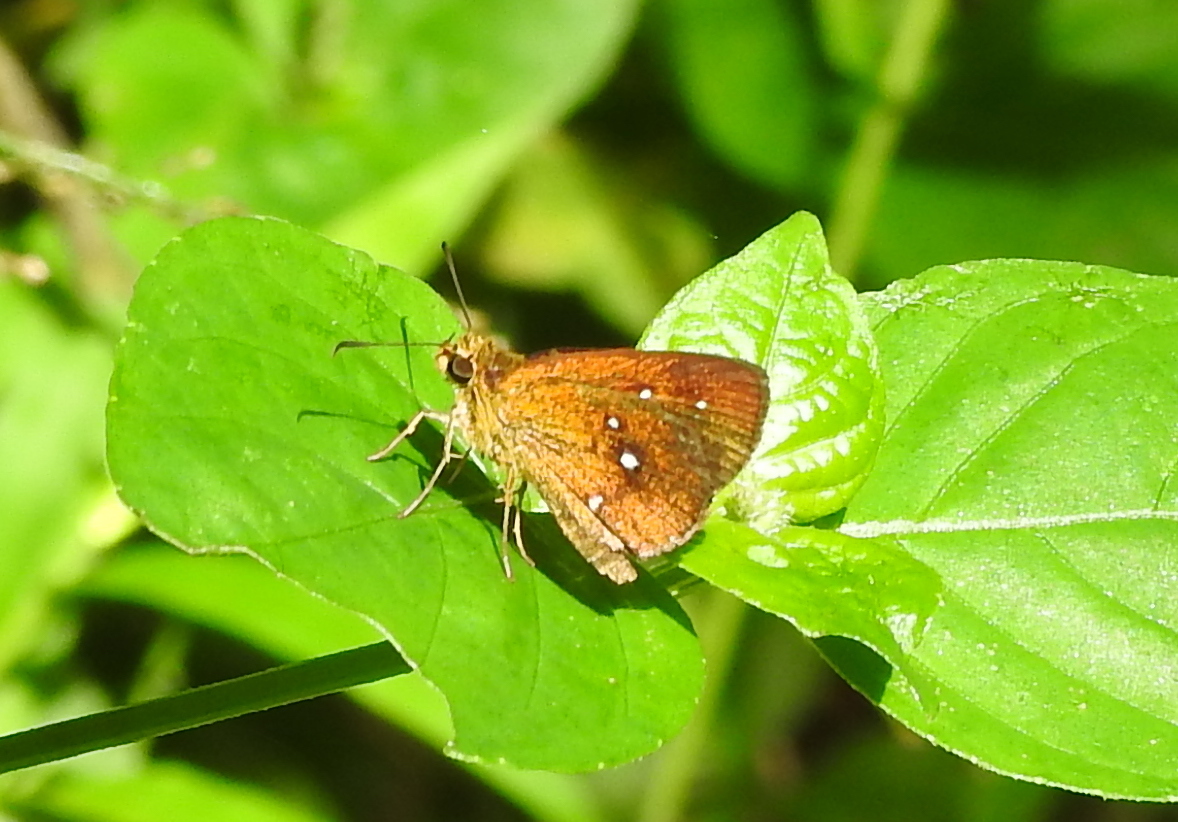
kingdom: Animalia
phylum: Arthropoda
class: Insecta
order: Lepidoptera
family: Hesperiidae
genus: Iambrix
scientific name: Iambrix salsala
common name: Chestnut bob
